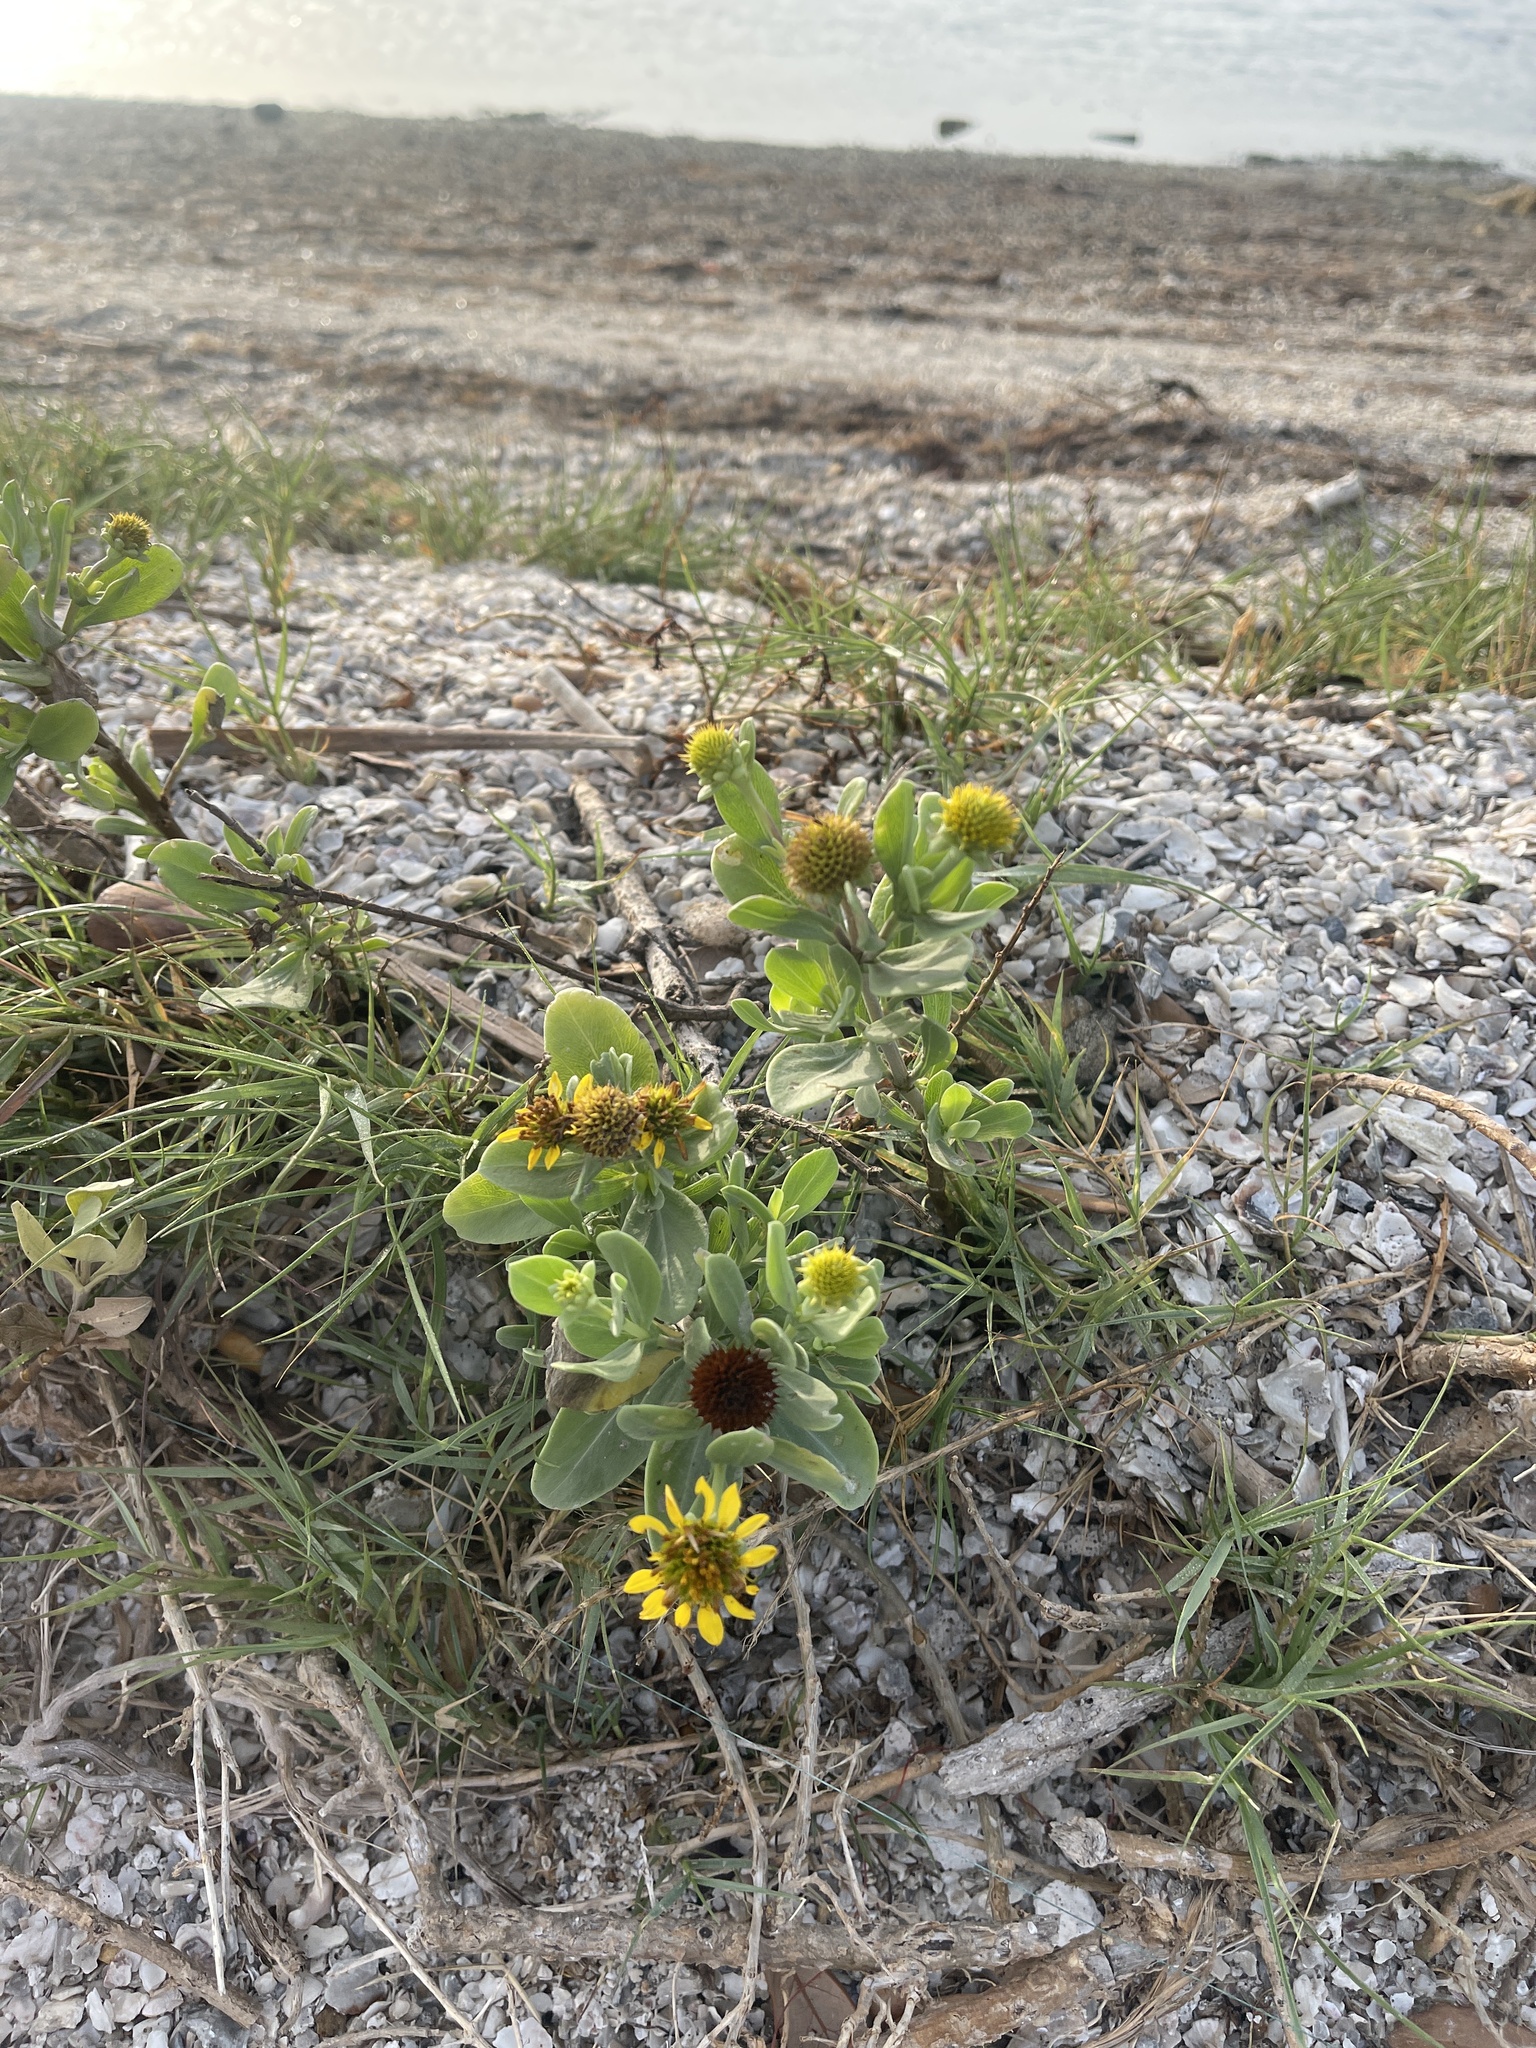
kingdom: Plantae
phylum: Tracheophyta
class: Magnoliopsida
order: Asterales
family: Asteraceae
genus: Borrichia
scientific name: Borrichia frutescens
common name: Sea oxeye
